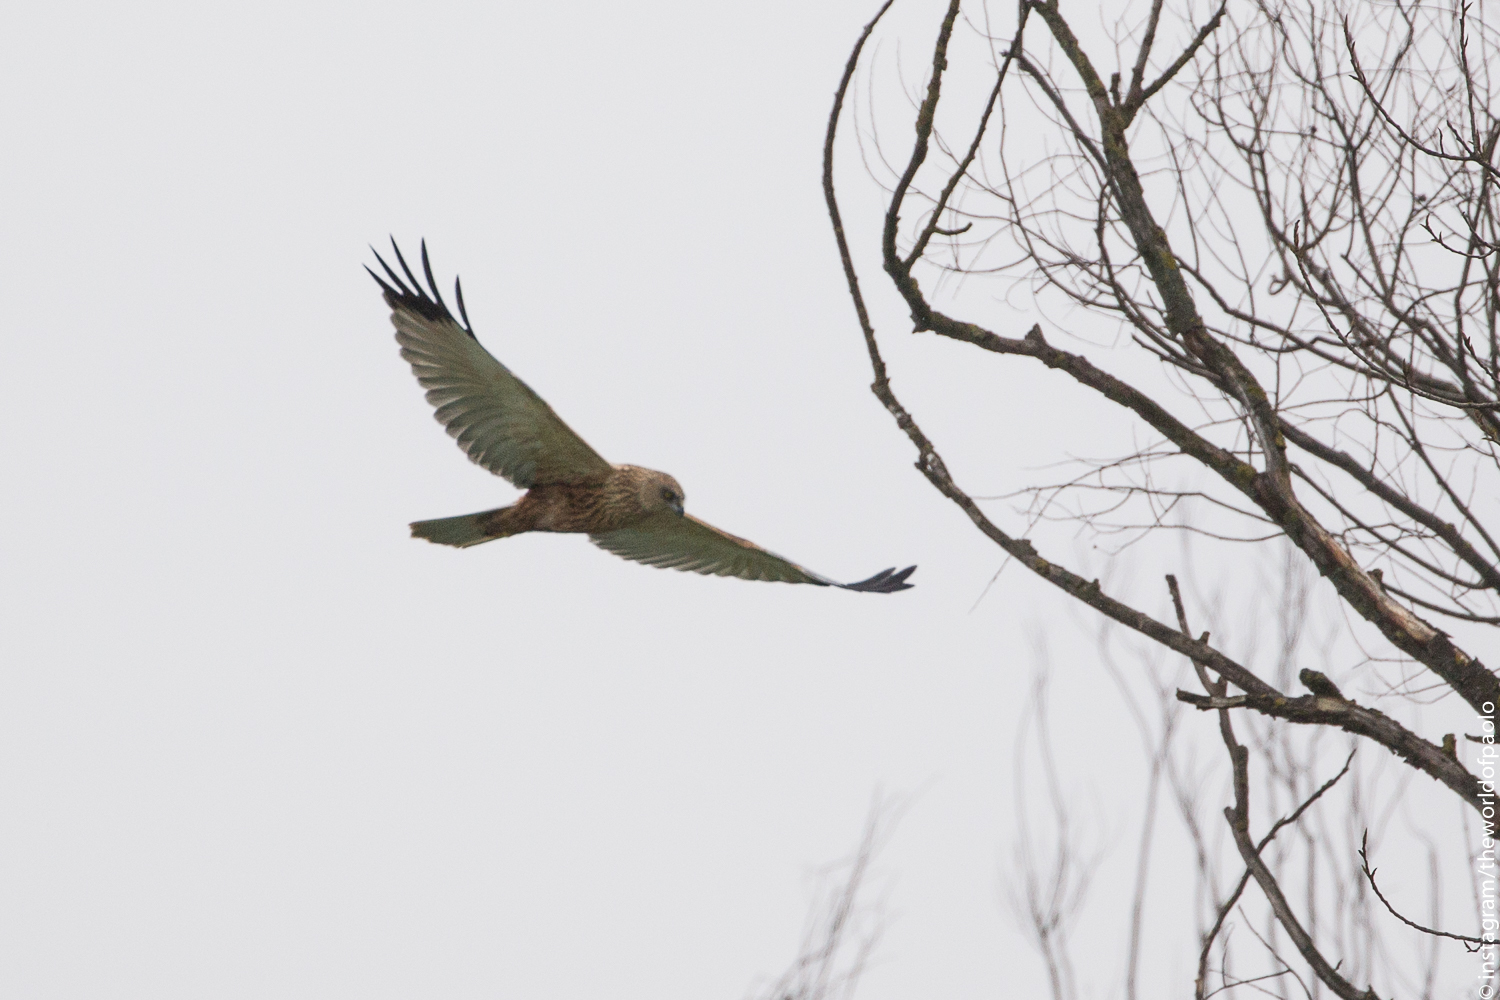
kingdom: Animalia
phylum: Chordata
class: Aves
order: Accipitriformes
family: Accipitridae
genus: Circus
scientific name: Circus aeruginosus
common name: Western marsh harrier
